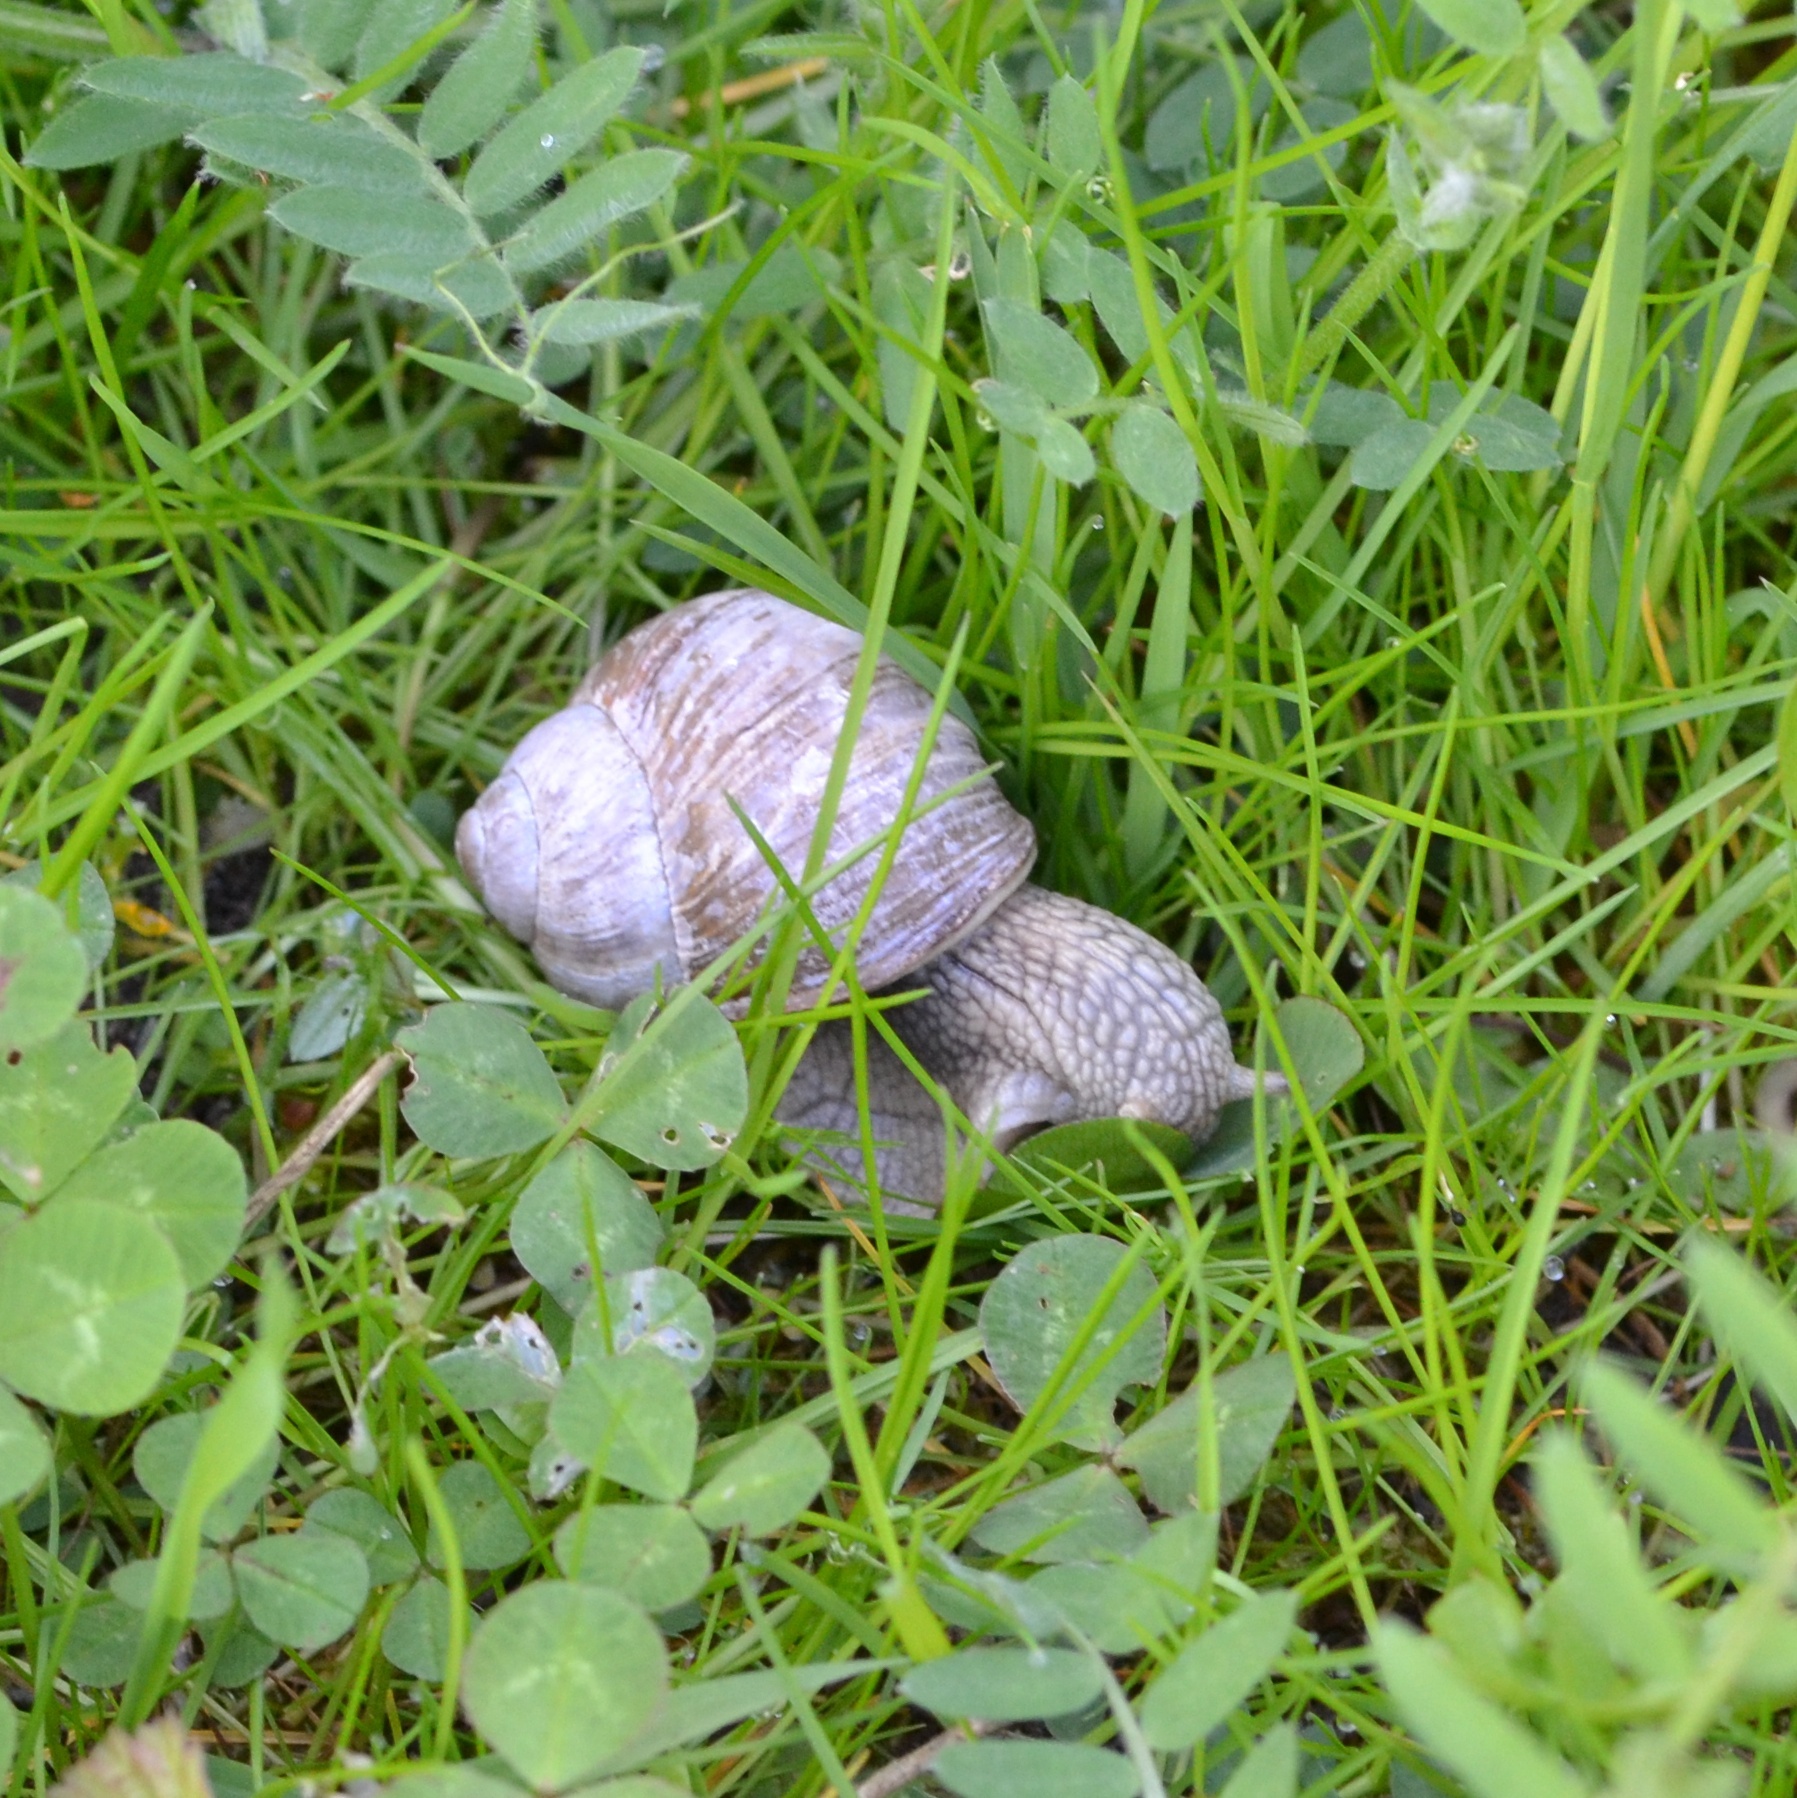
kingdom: Animalia
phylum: Mollusca
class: Gastropoda
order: Stylommatophora
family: Helicidae
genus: Helix
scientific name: Helix pomatia
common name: Roman snail
